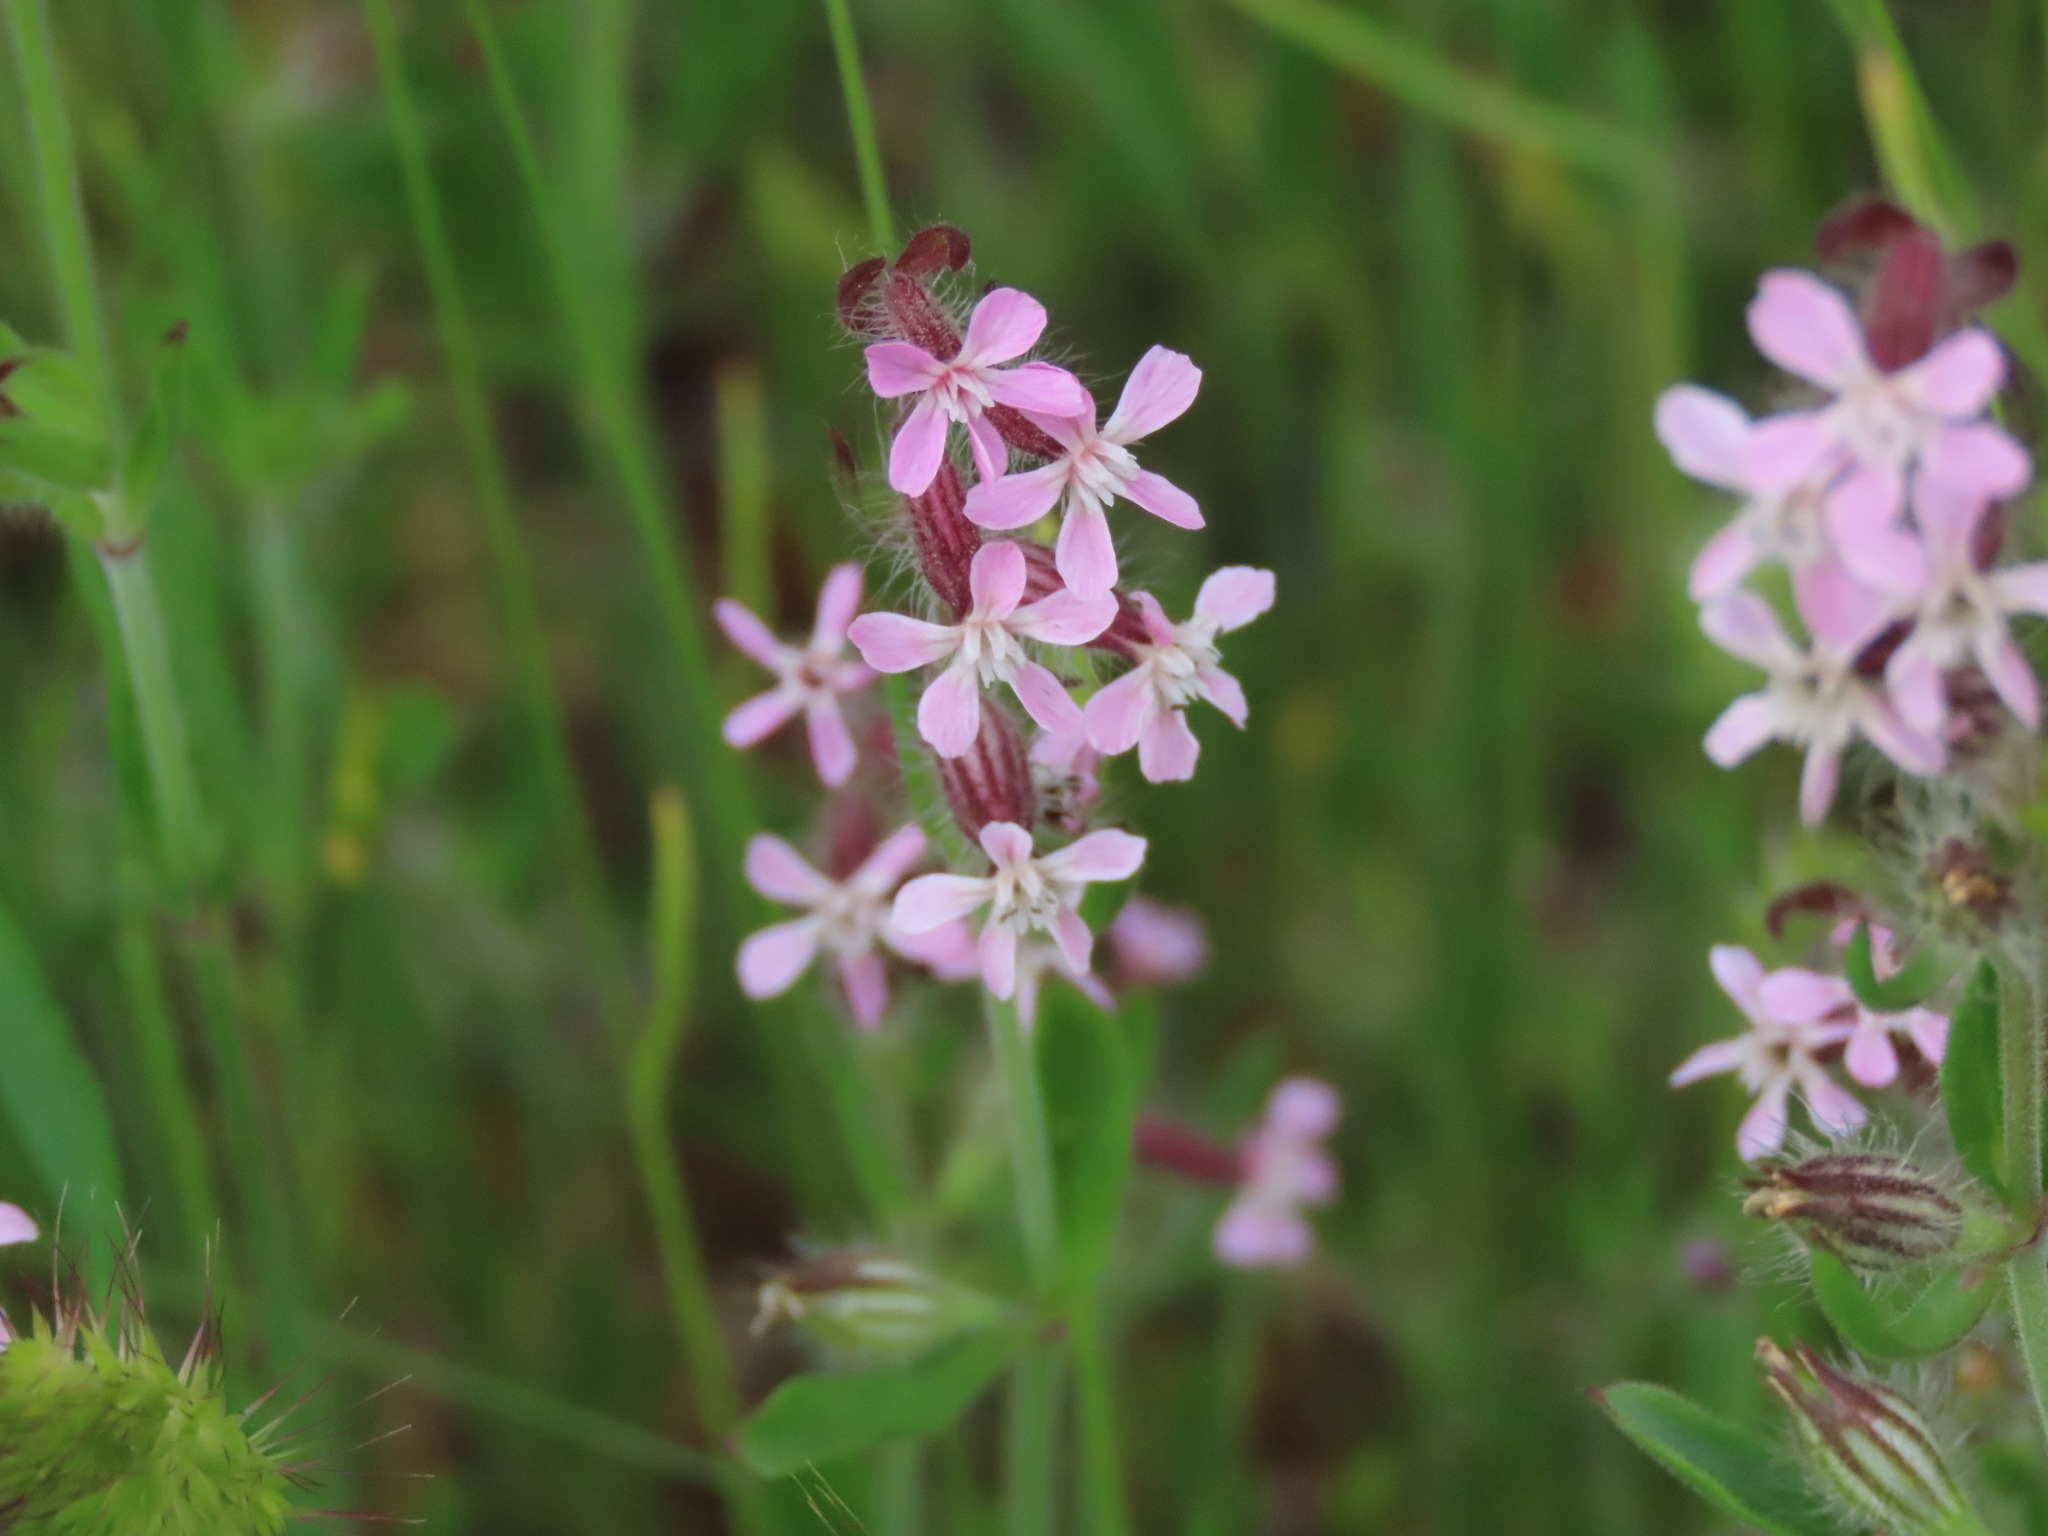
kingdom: Plantae
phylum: Tracheophyta
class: Magnoliopsida
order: Caryophyllales
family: Caryophyllaceae
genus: Silene
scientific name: Silene gallica
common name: Small-flowered catchfly
